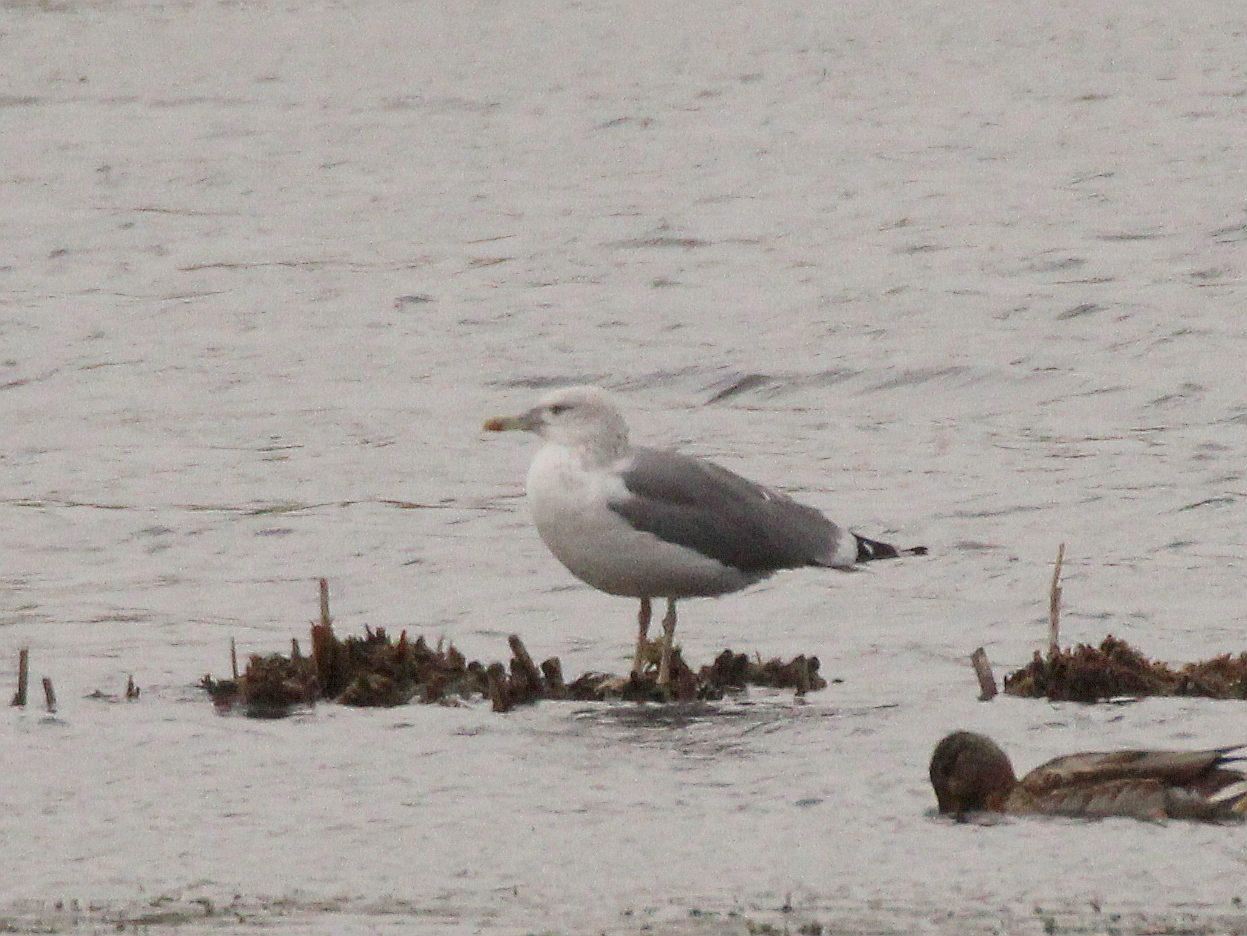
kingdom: Animalia
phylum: Chordata
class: Aves
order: Charadriiformes
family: Laridae
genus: Larus
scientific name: Larus fuscus
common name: Lesser black-backed gull
